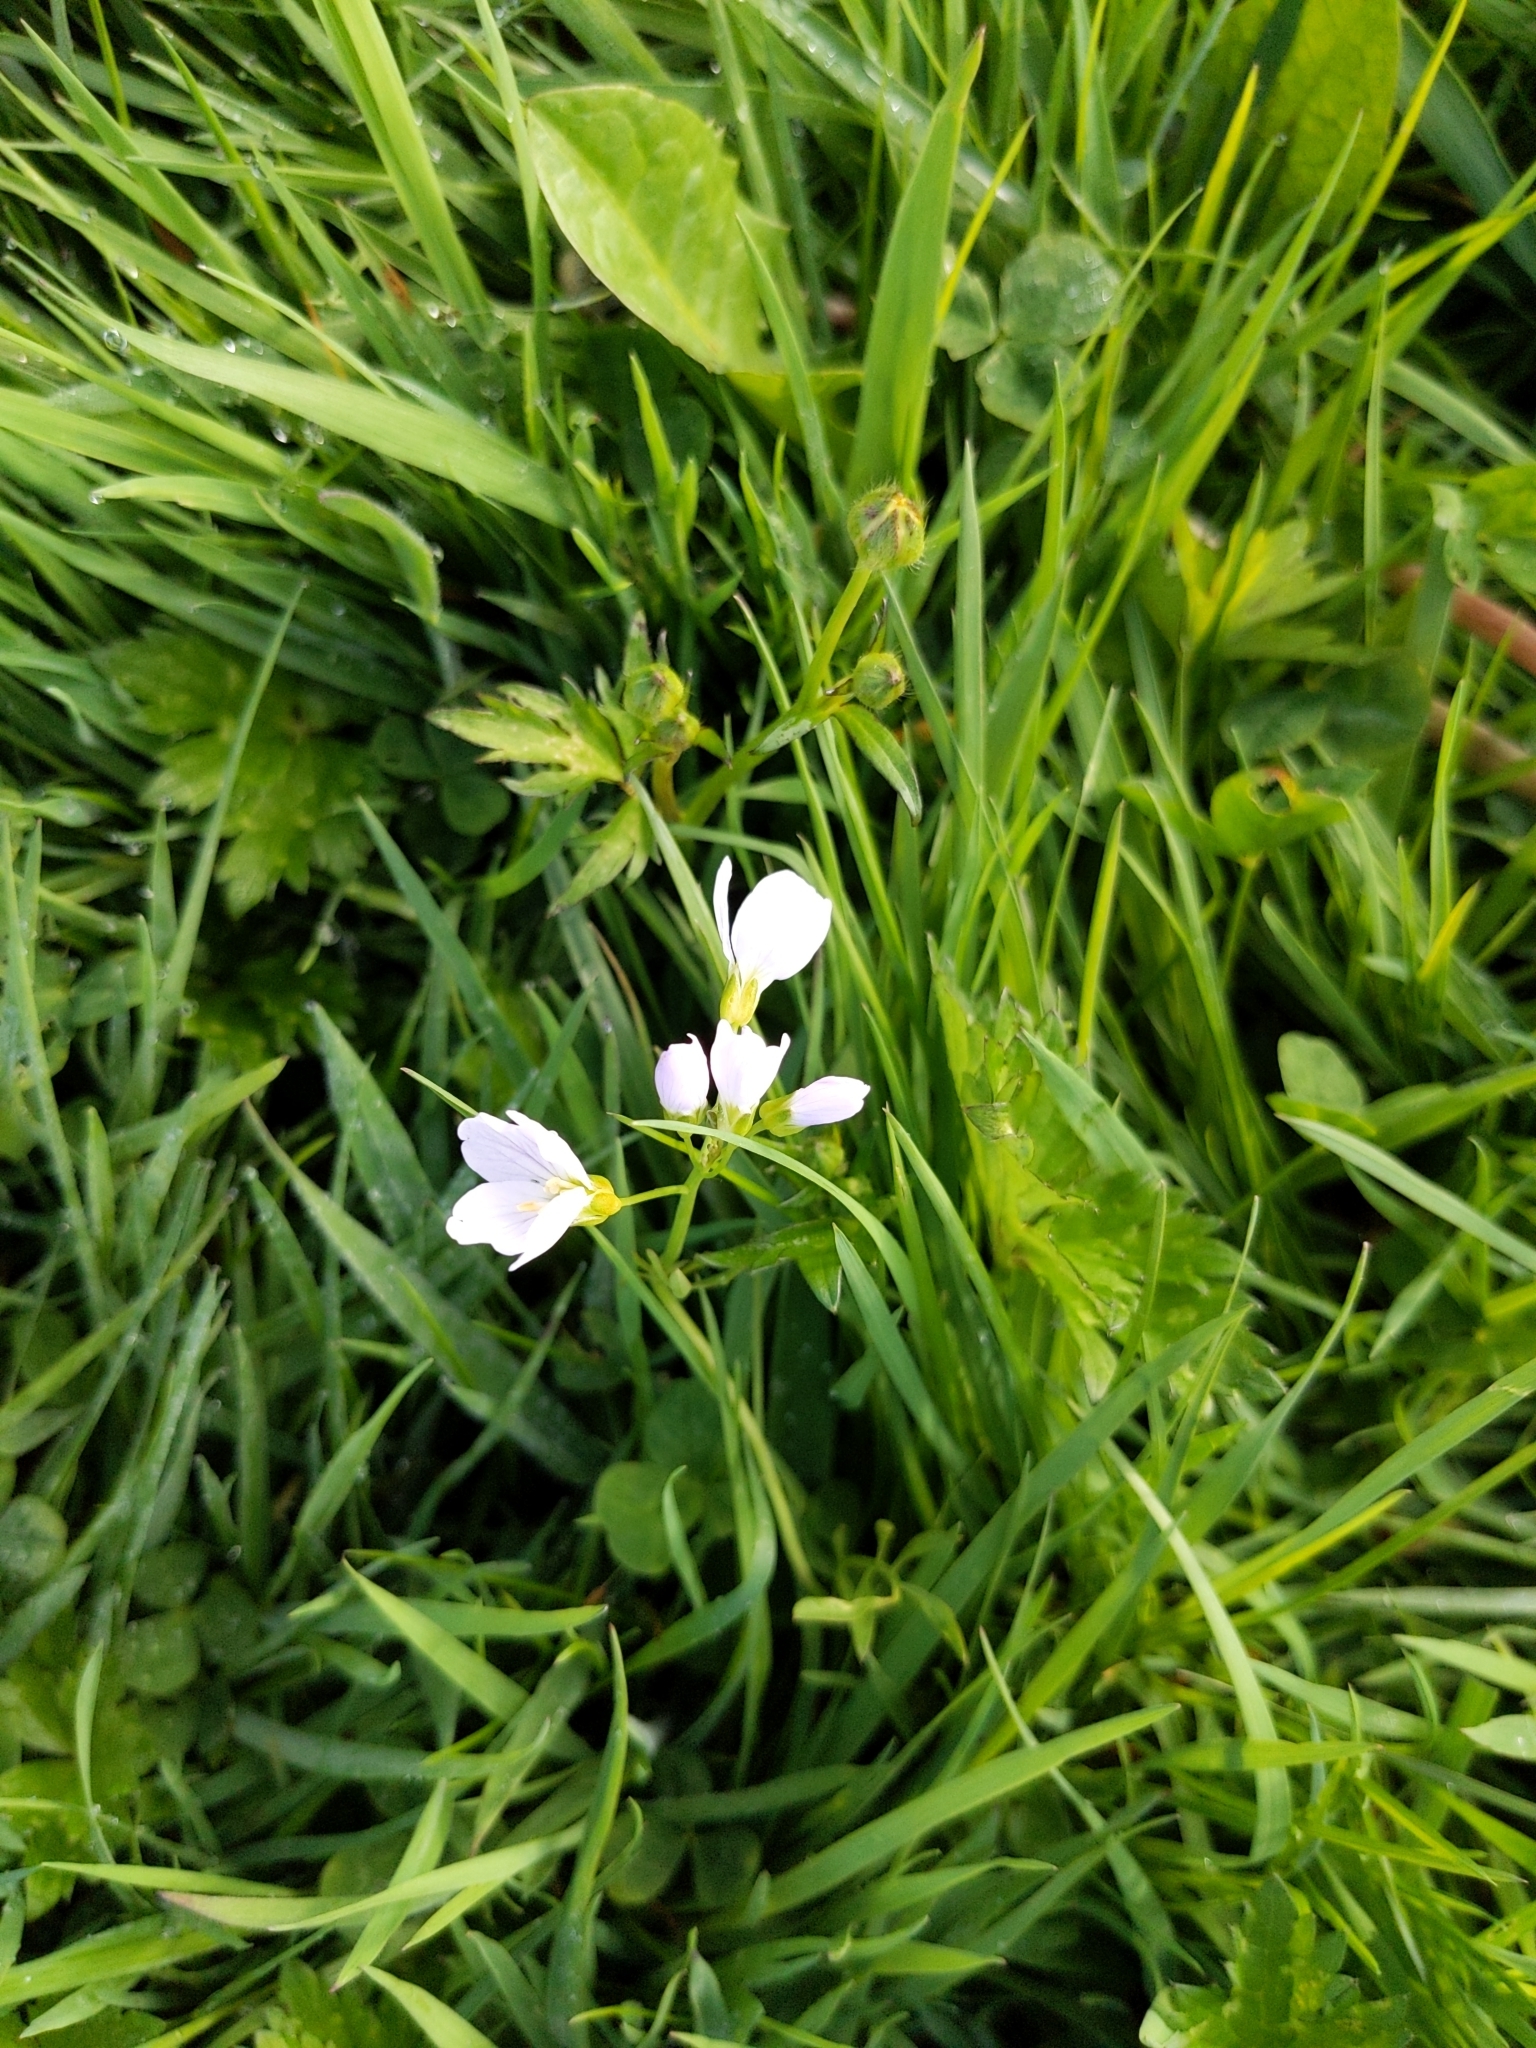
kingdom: Plantae
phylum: Tracheophyta
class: Magnoliopsida
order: Brassicales
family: Brassicaceae
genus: Cardamine
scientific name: Cardamine pratensis
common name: Cuckoo flower
